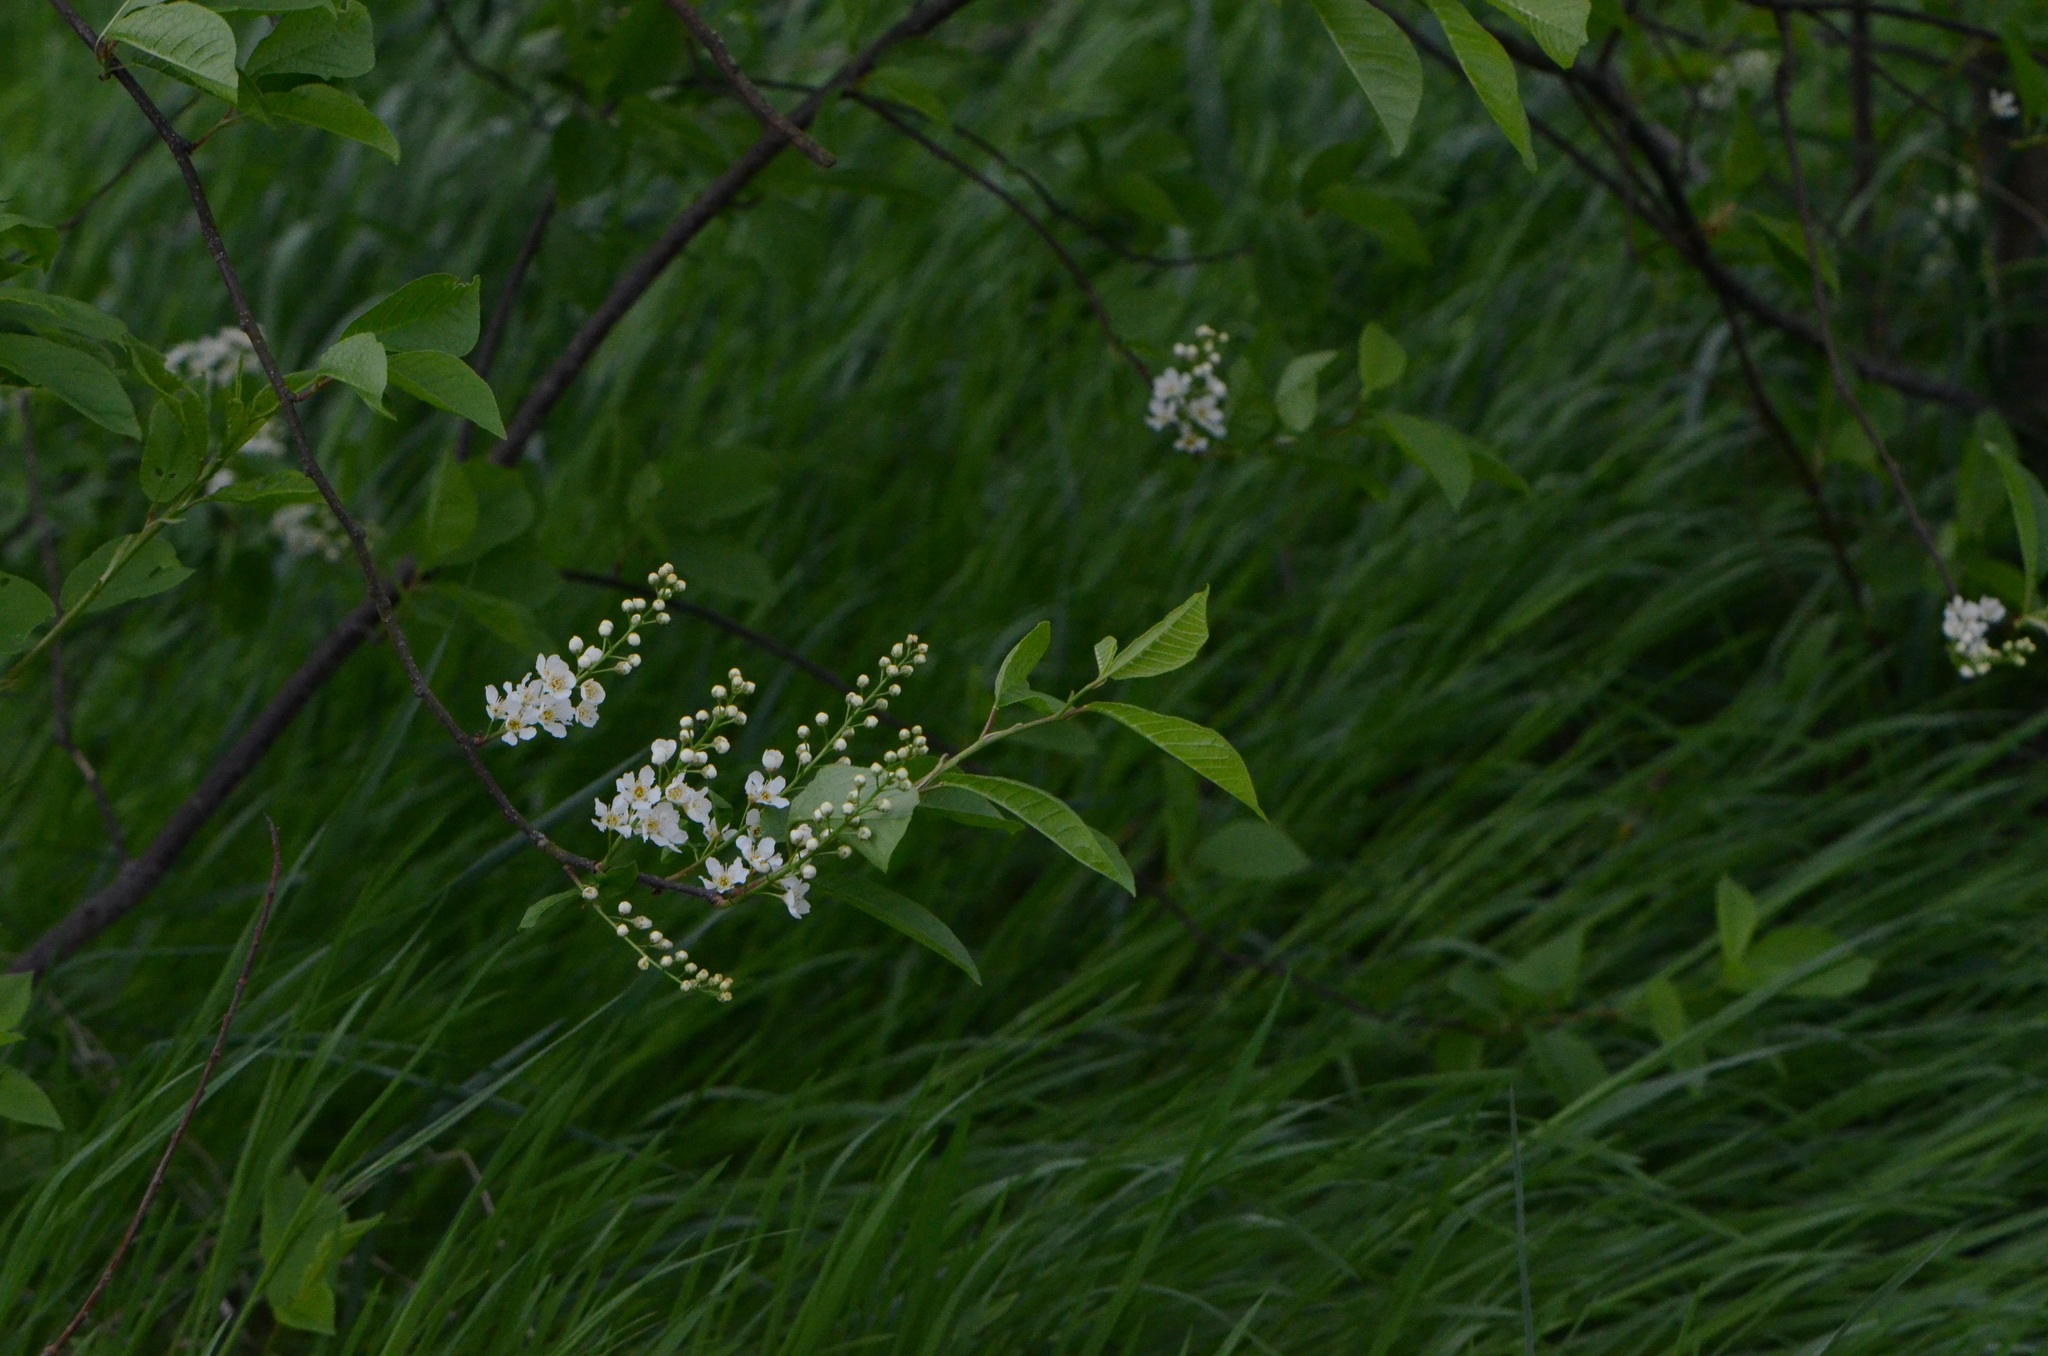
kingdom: Plantae
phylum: Tracheophyta
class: Magnoliopsida
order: Rosales
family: Rosaceae
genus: Prunus
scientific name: Prunus padus
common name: Bird cherry
